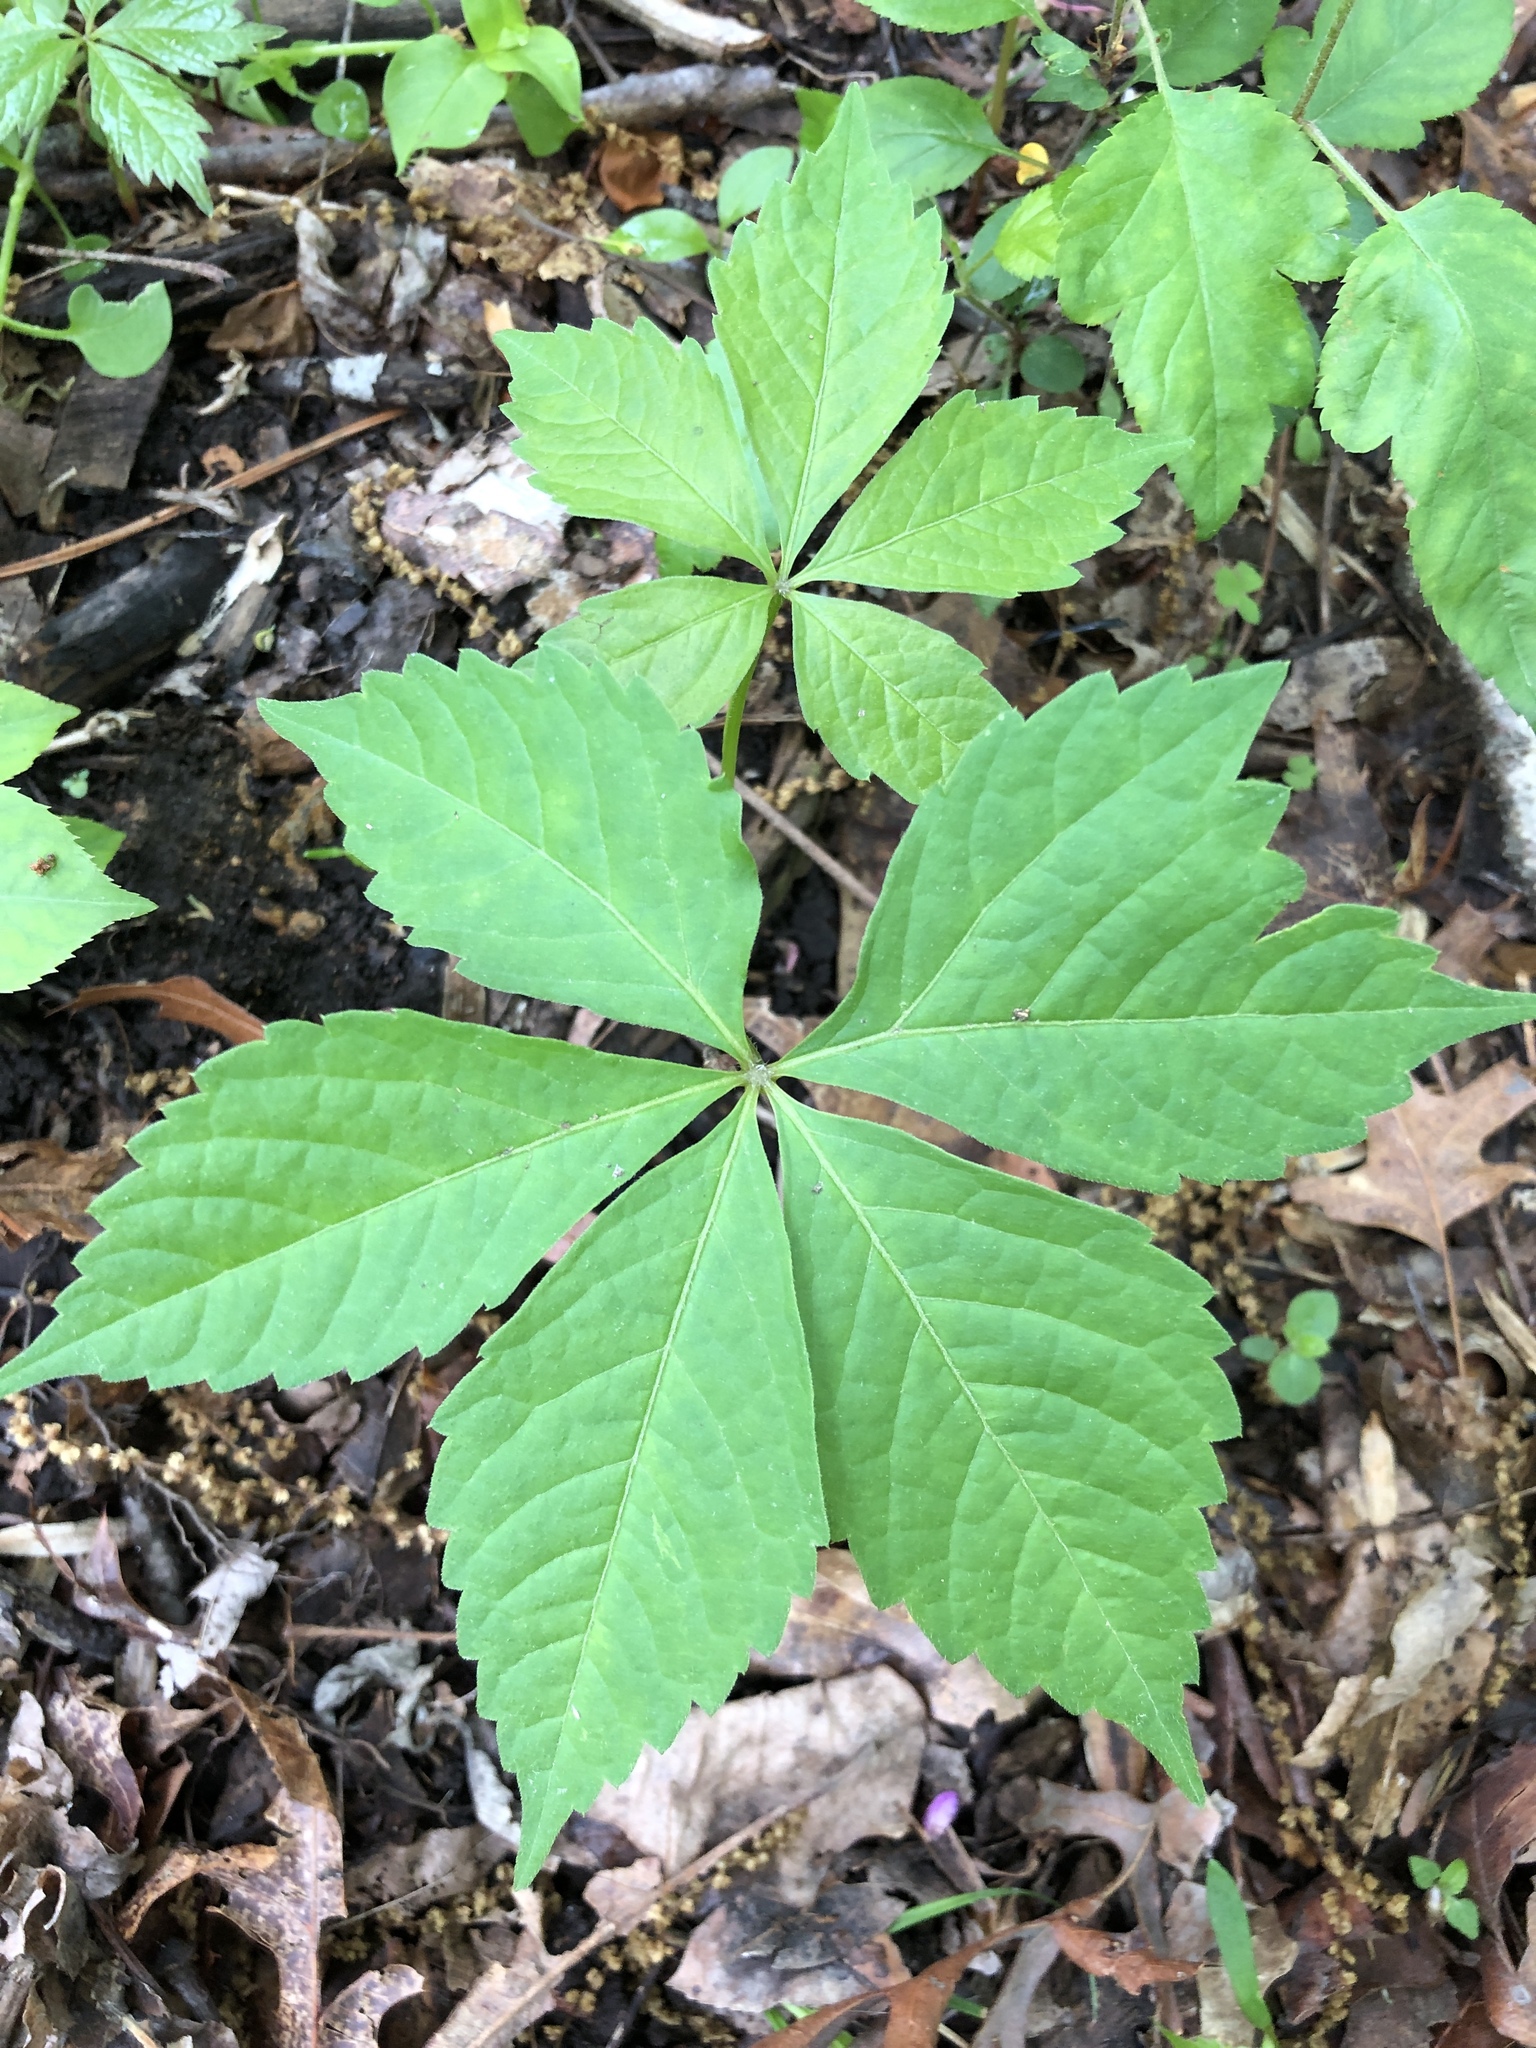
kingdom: Plantae
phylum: Tracheophyta
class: Magnoliopsida
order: Vitales
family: Vitaceae
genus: Parthenocissus
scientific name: Parthenocissus quinquefolia
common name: Virginia-creeper
